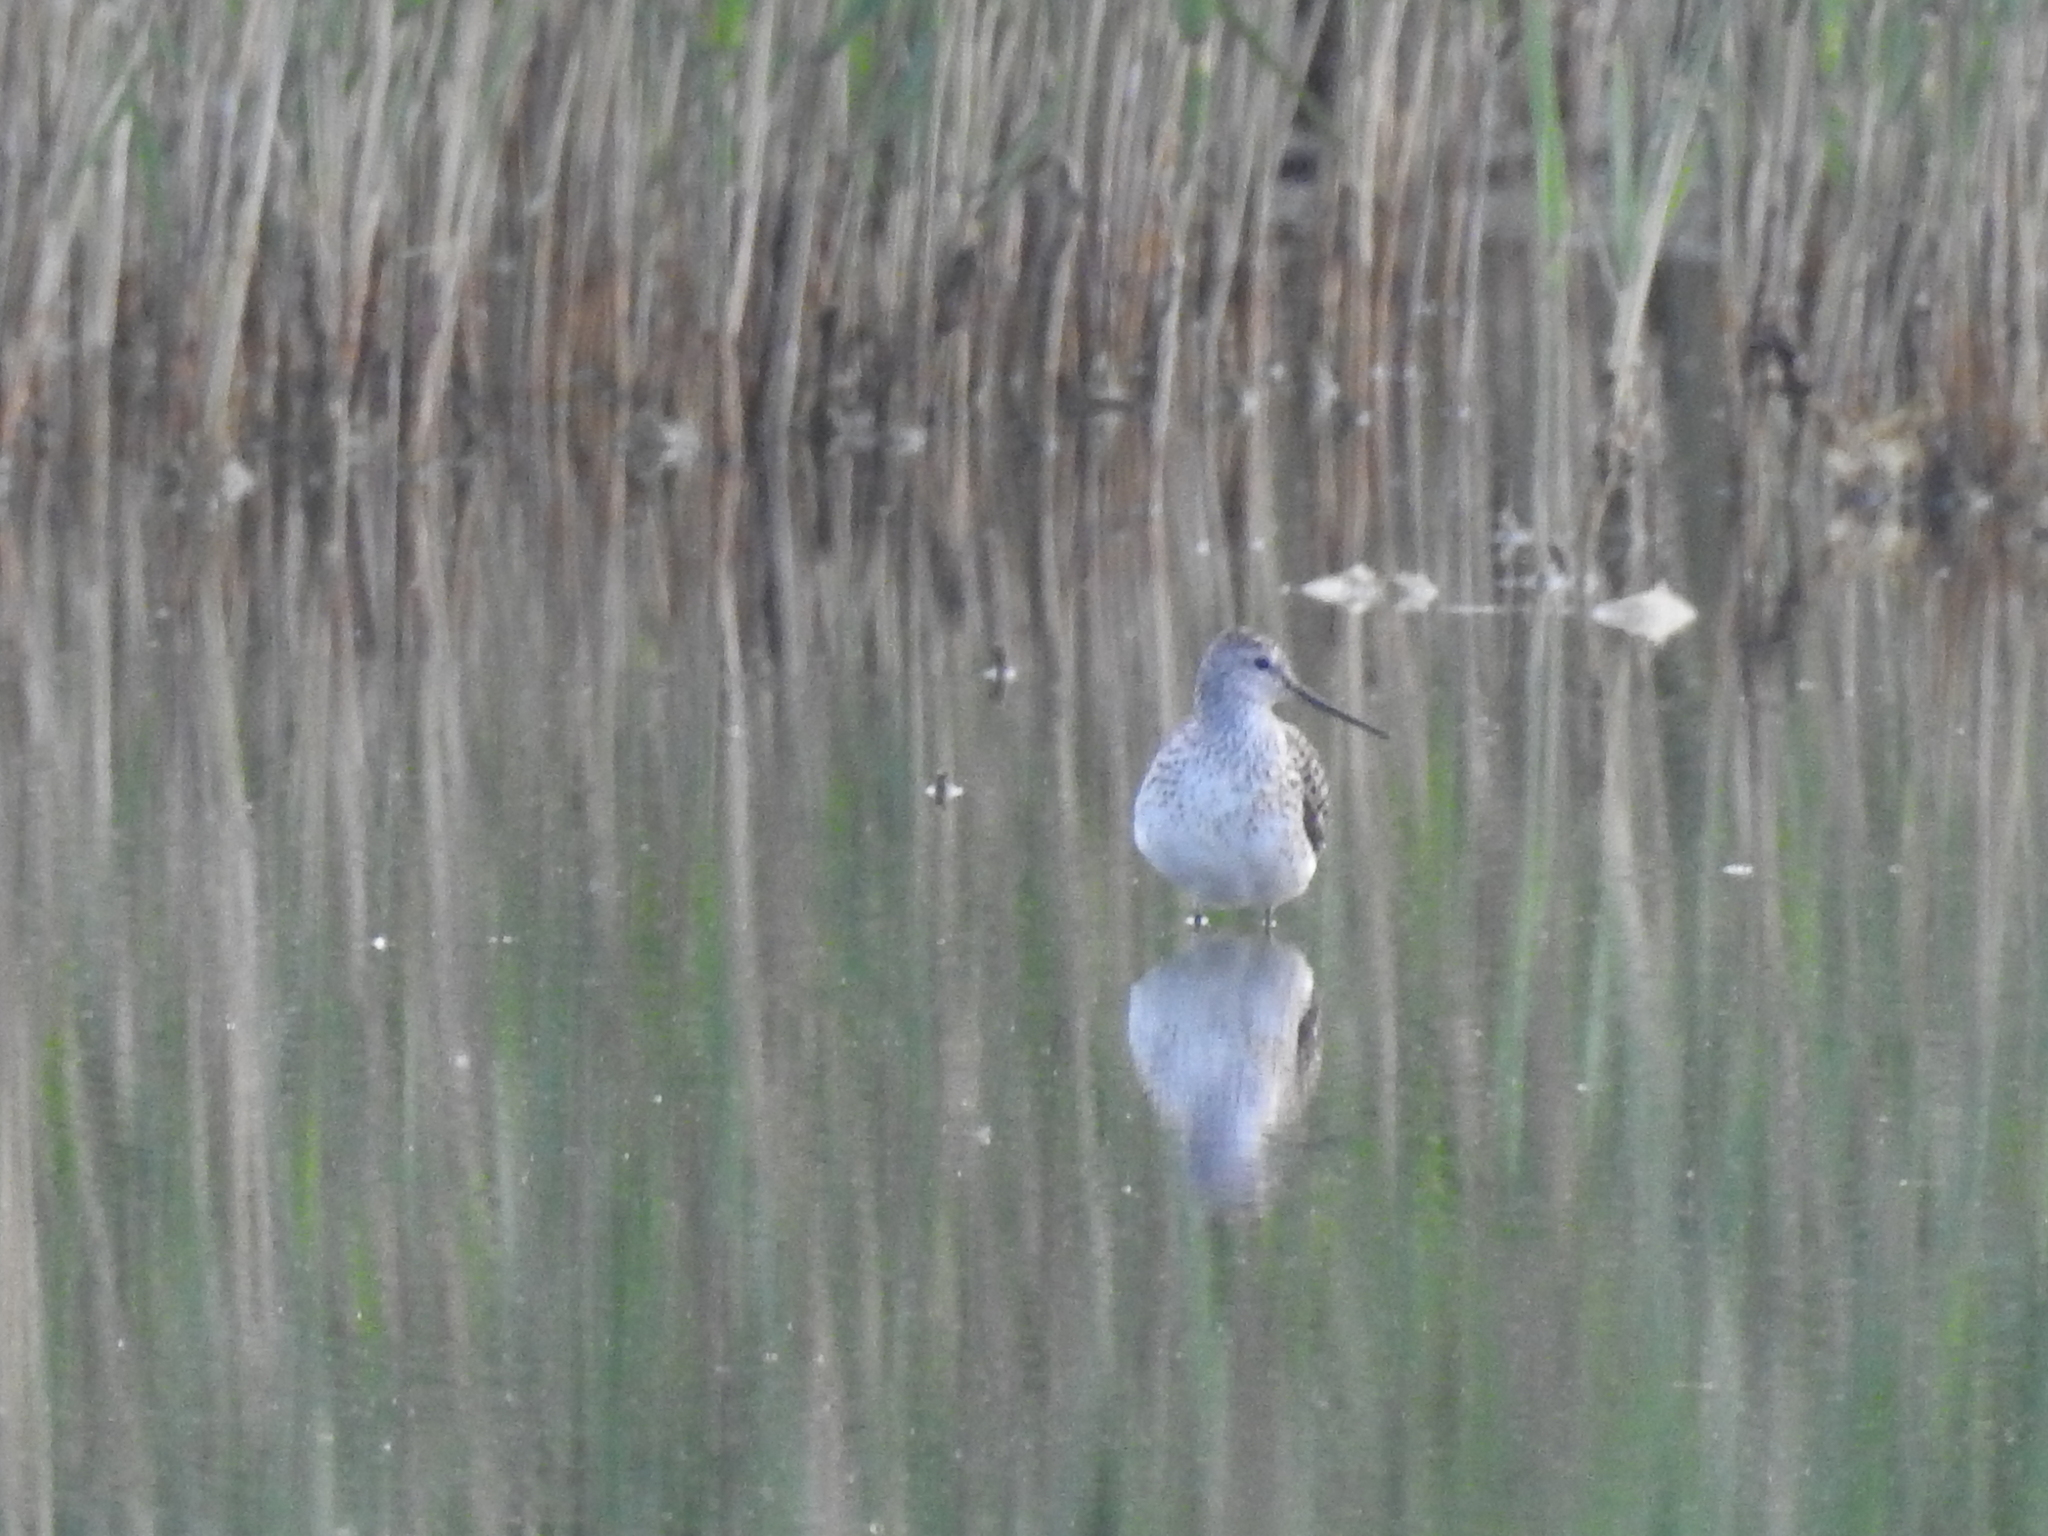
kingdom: Animalia
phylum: Chordata
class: Aves
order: Charadriiformes
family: Scolopacidae
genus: Tringa
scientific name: Tringa stagnatilis
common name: Marsh sandpiper
